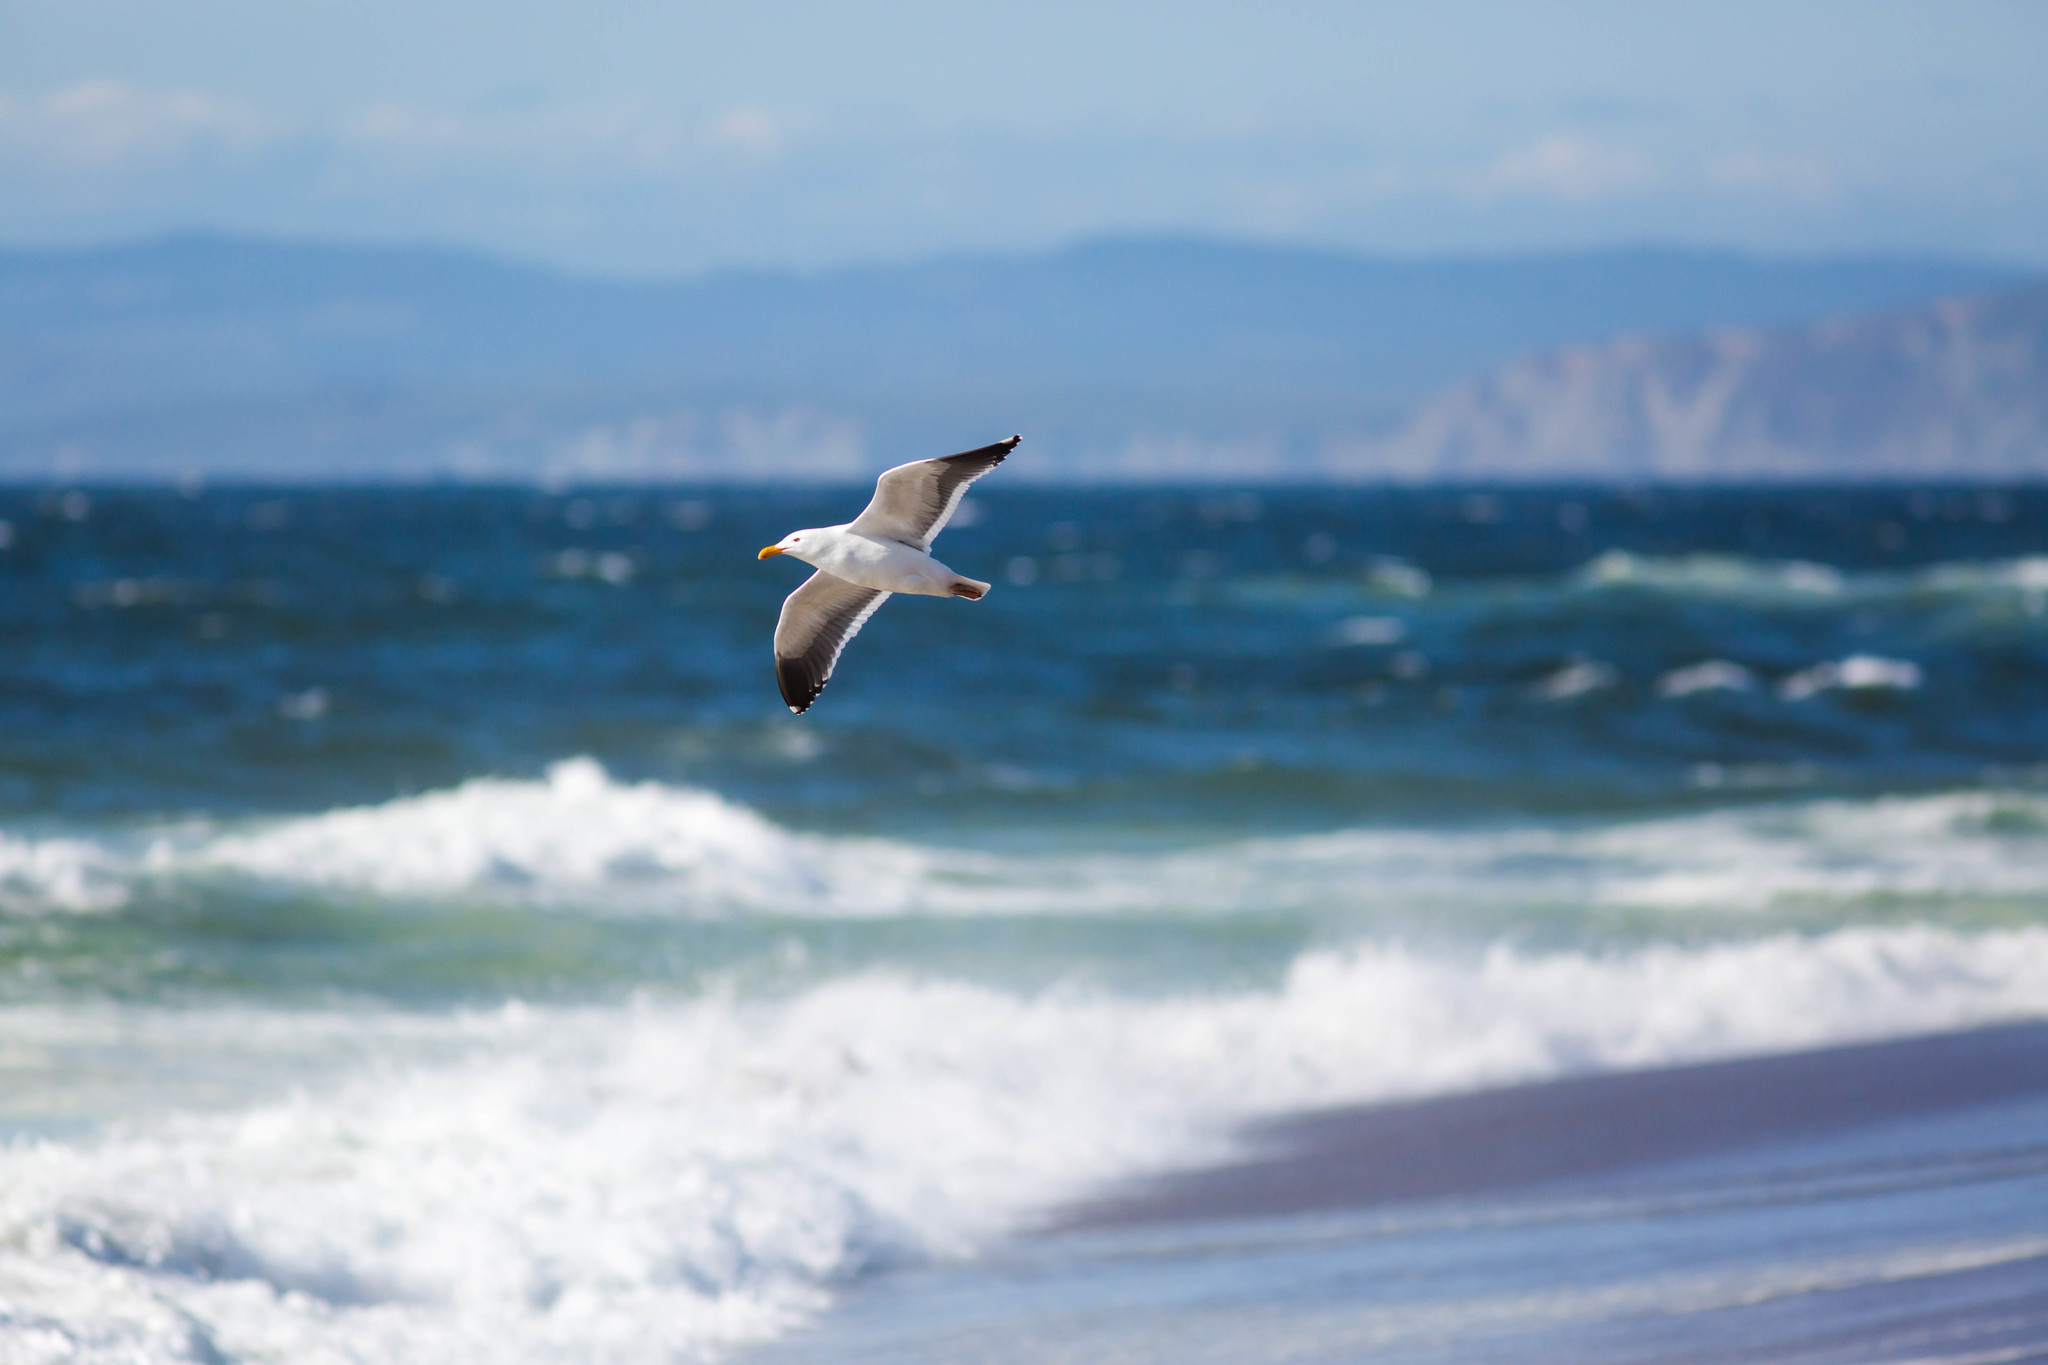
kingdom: Animalia
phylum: Chordata
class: Aves
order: Charadriiformes
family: Laridae
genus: Larus
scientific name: Larus occidentalis
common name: Western gull
